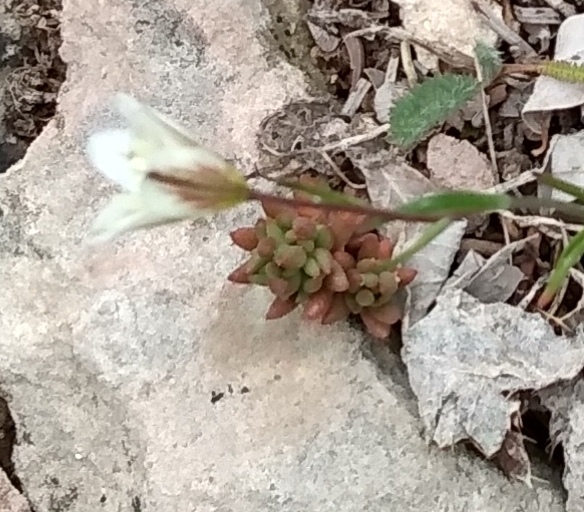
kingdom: Plantae
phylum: Tracheophyta
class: Magnoliopsida
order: Saxifragales
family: Crassulaceae
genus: Sedum
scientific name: Sedum lanceolatum
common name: Common stonecrop
